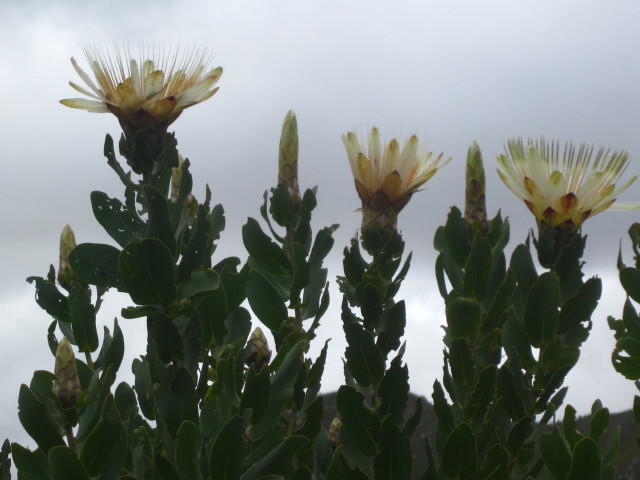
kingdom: Plantae
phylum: Tracheophyta
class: Magnoliopsida
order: Proteales
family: Proteaceae
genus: Protea
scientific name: Protea aurea
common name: Shuttlecock sugarbush
